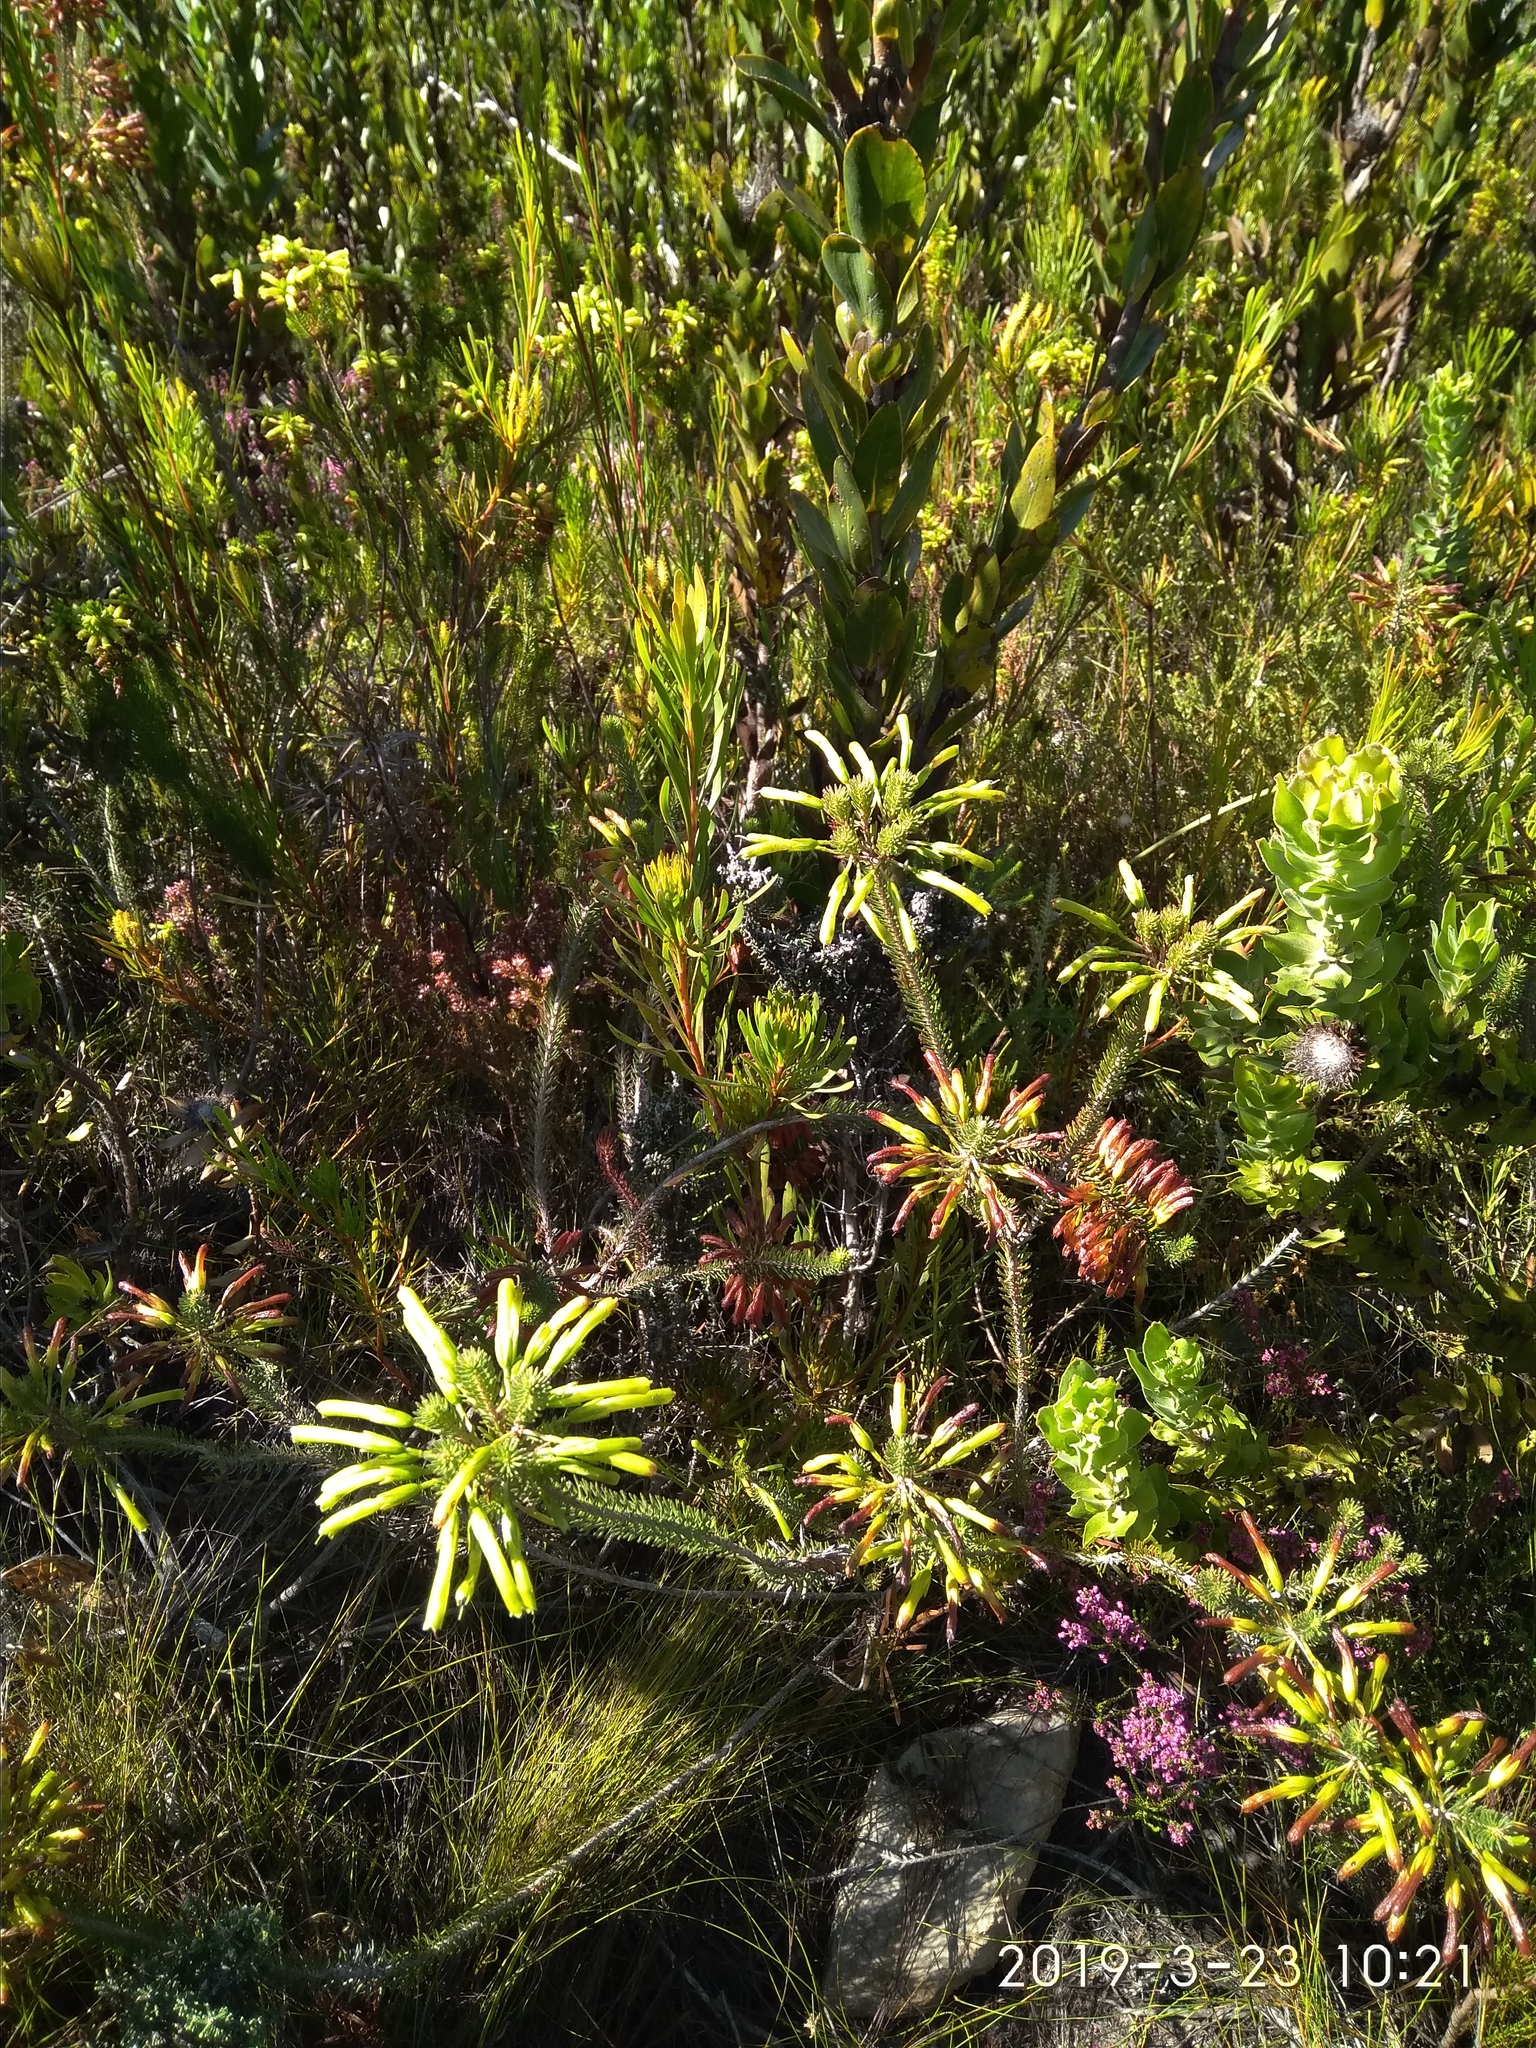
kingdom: Plantae
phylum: Tracheophyta
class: Magnoliopsida
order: Ericales
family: Ericaceae
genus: Erica
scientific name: Erica thomae
